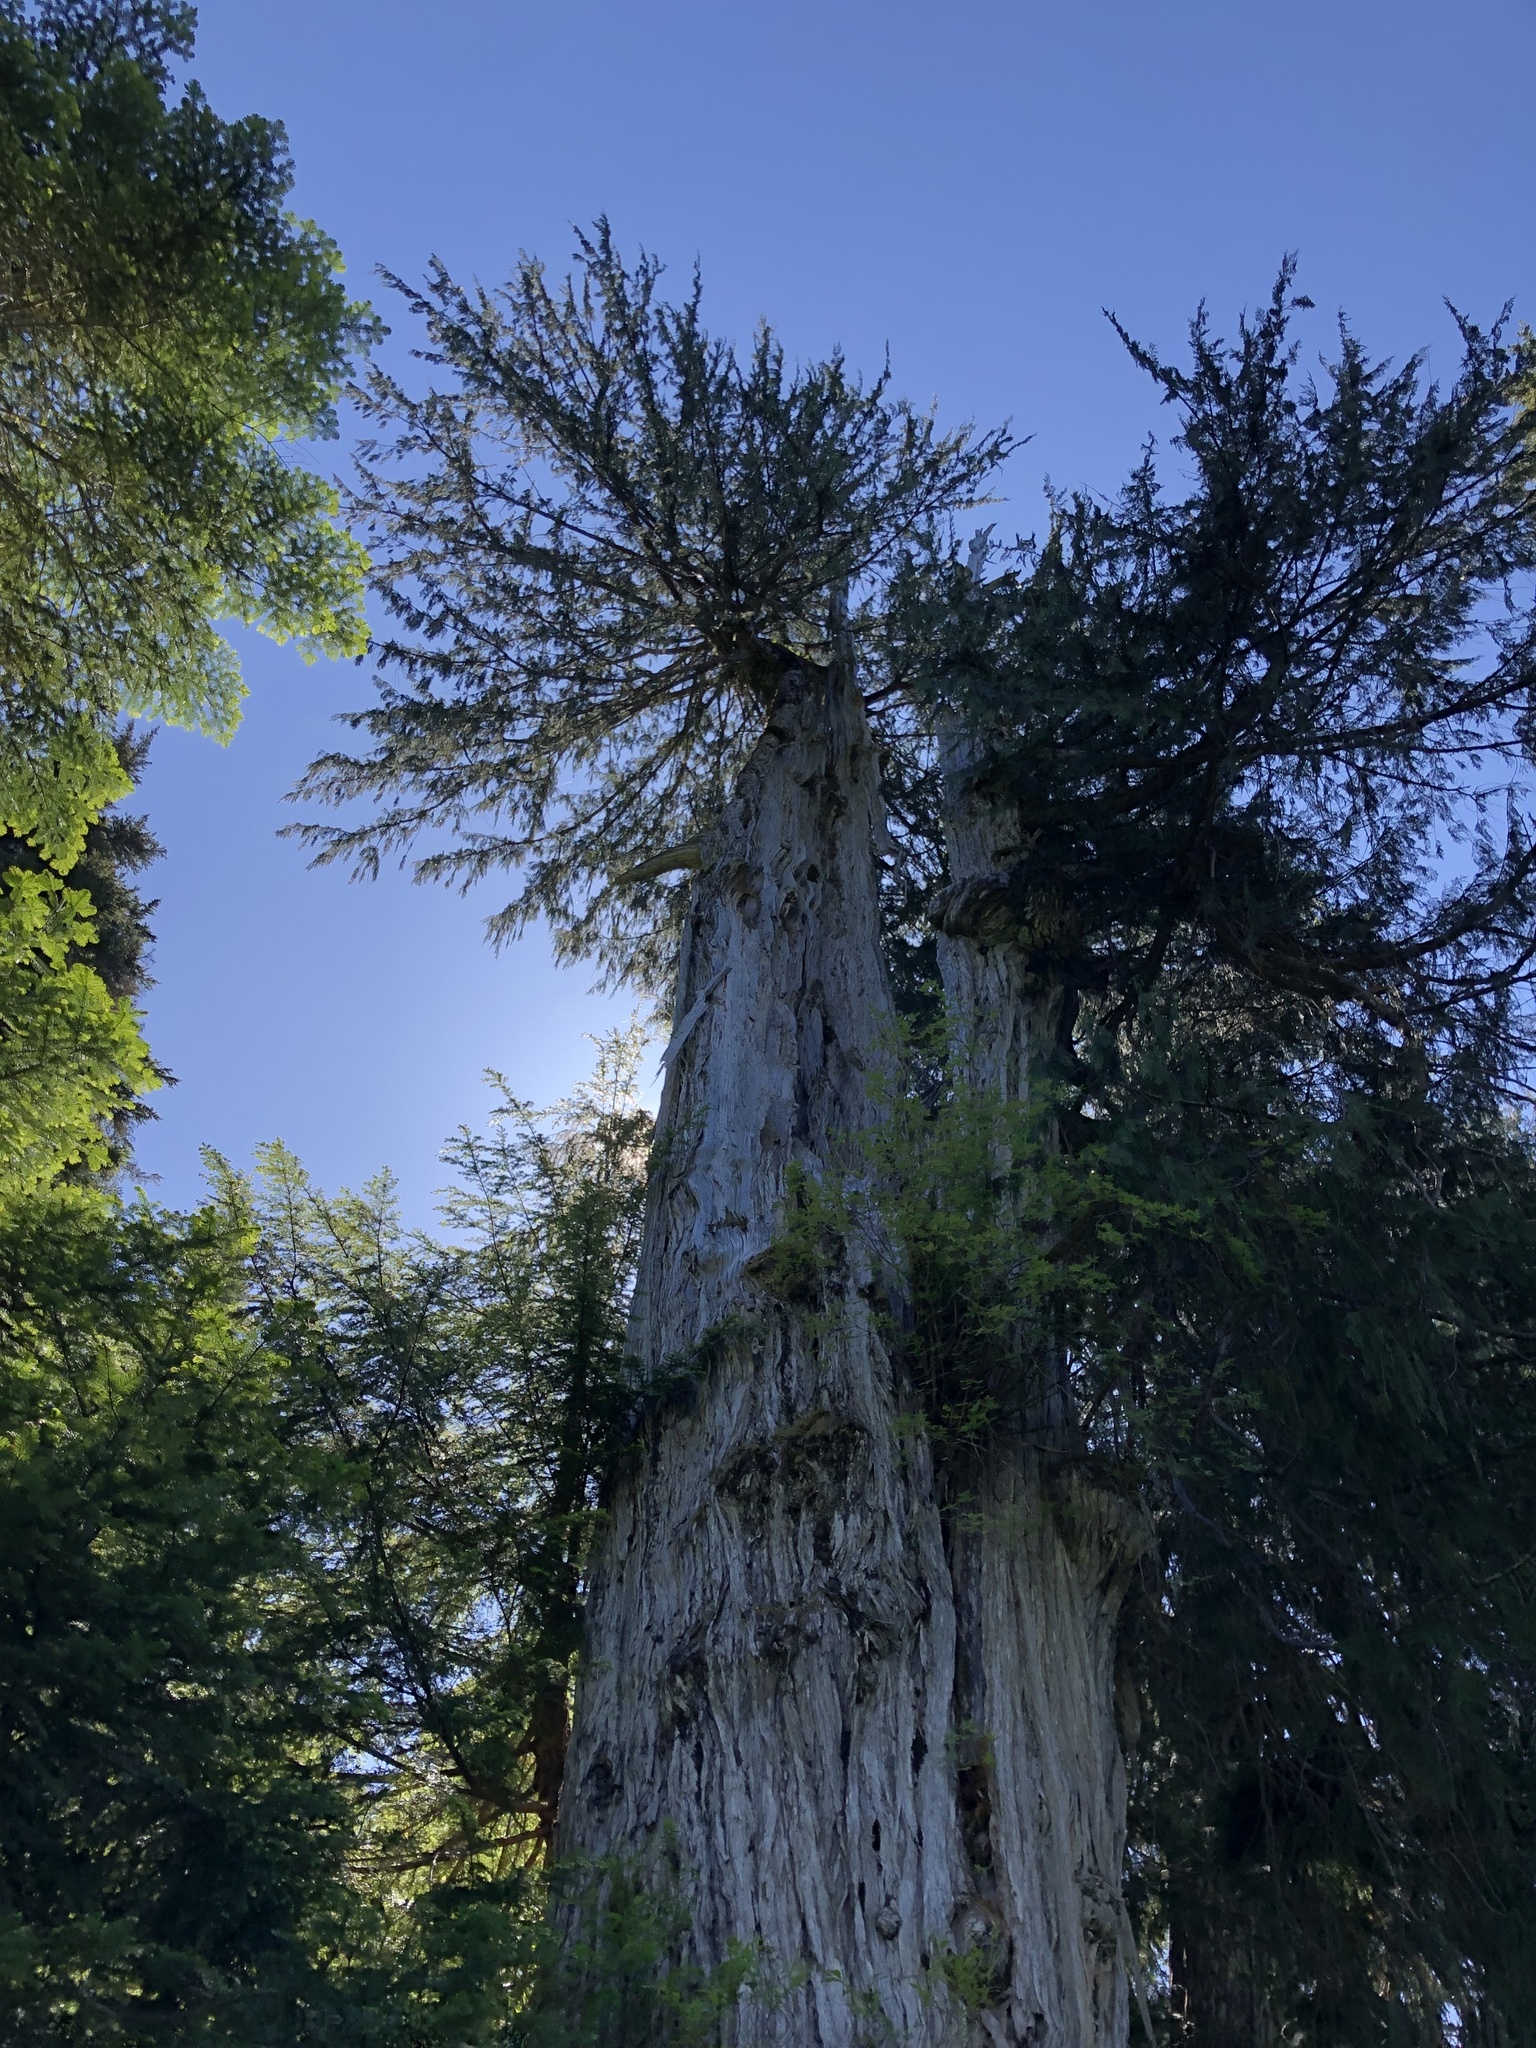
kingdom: Plantae
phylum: Tracheophyta
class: Pinopsida
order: Pinales
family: Cupressaceae
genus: Xanthocyparis
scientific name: Xanthocyparis nootkatensis
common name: Nootka cypress
